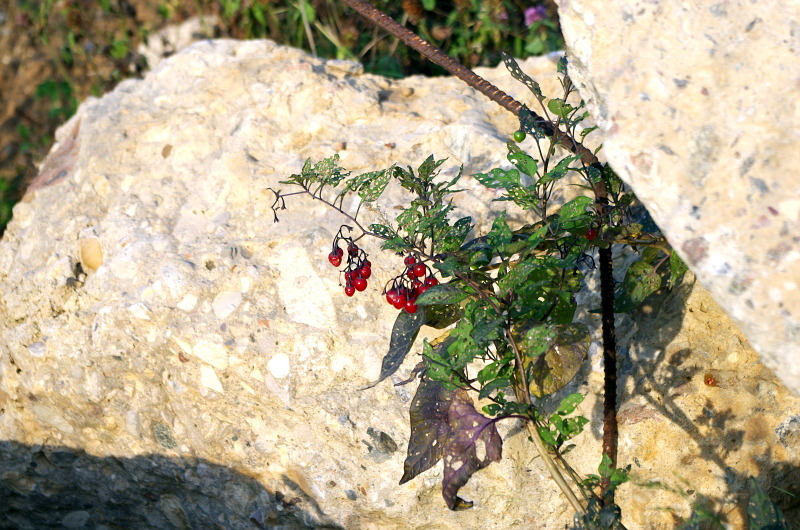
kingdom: Plantae
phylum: Tracheophyta
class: Magnoliopsida
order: Solanales
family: Solanaceae
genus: Solanum
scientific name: Solanum dulcamara
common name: Climbing nightshade
